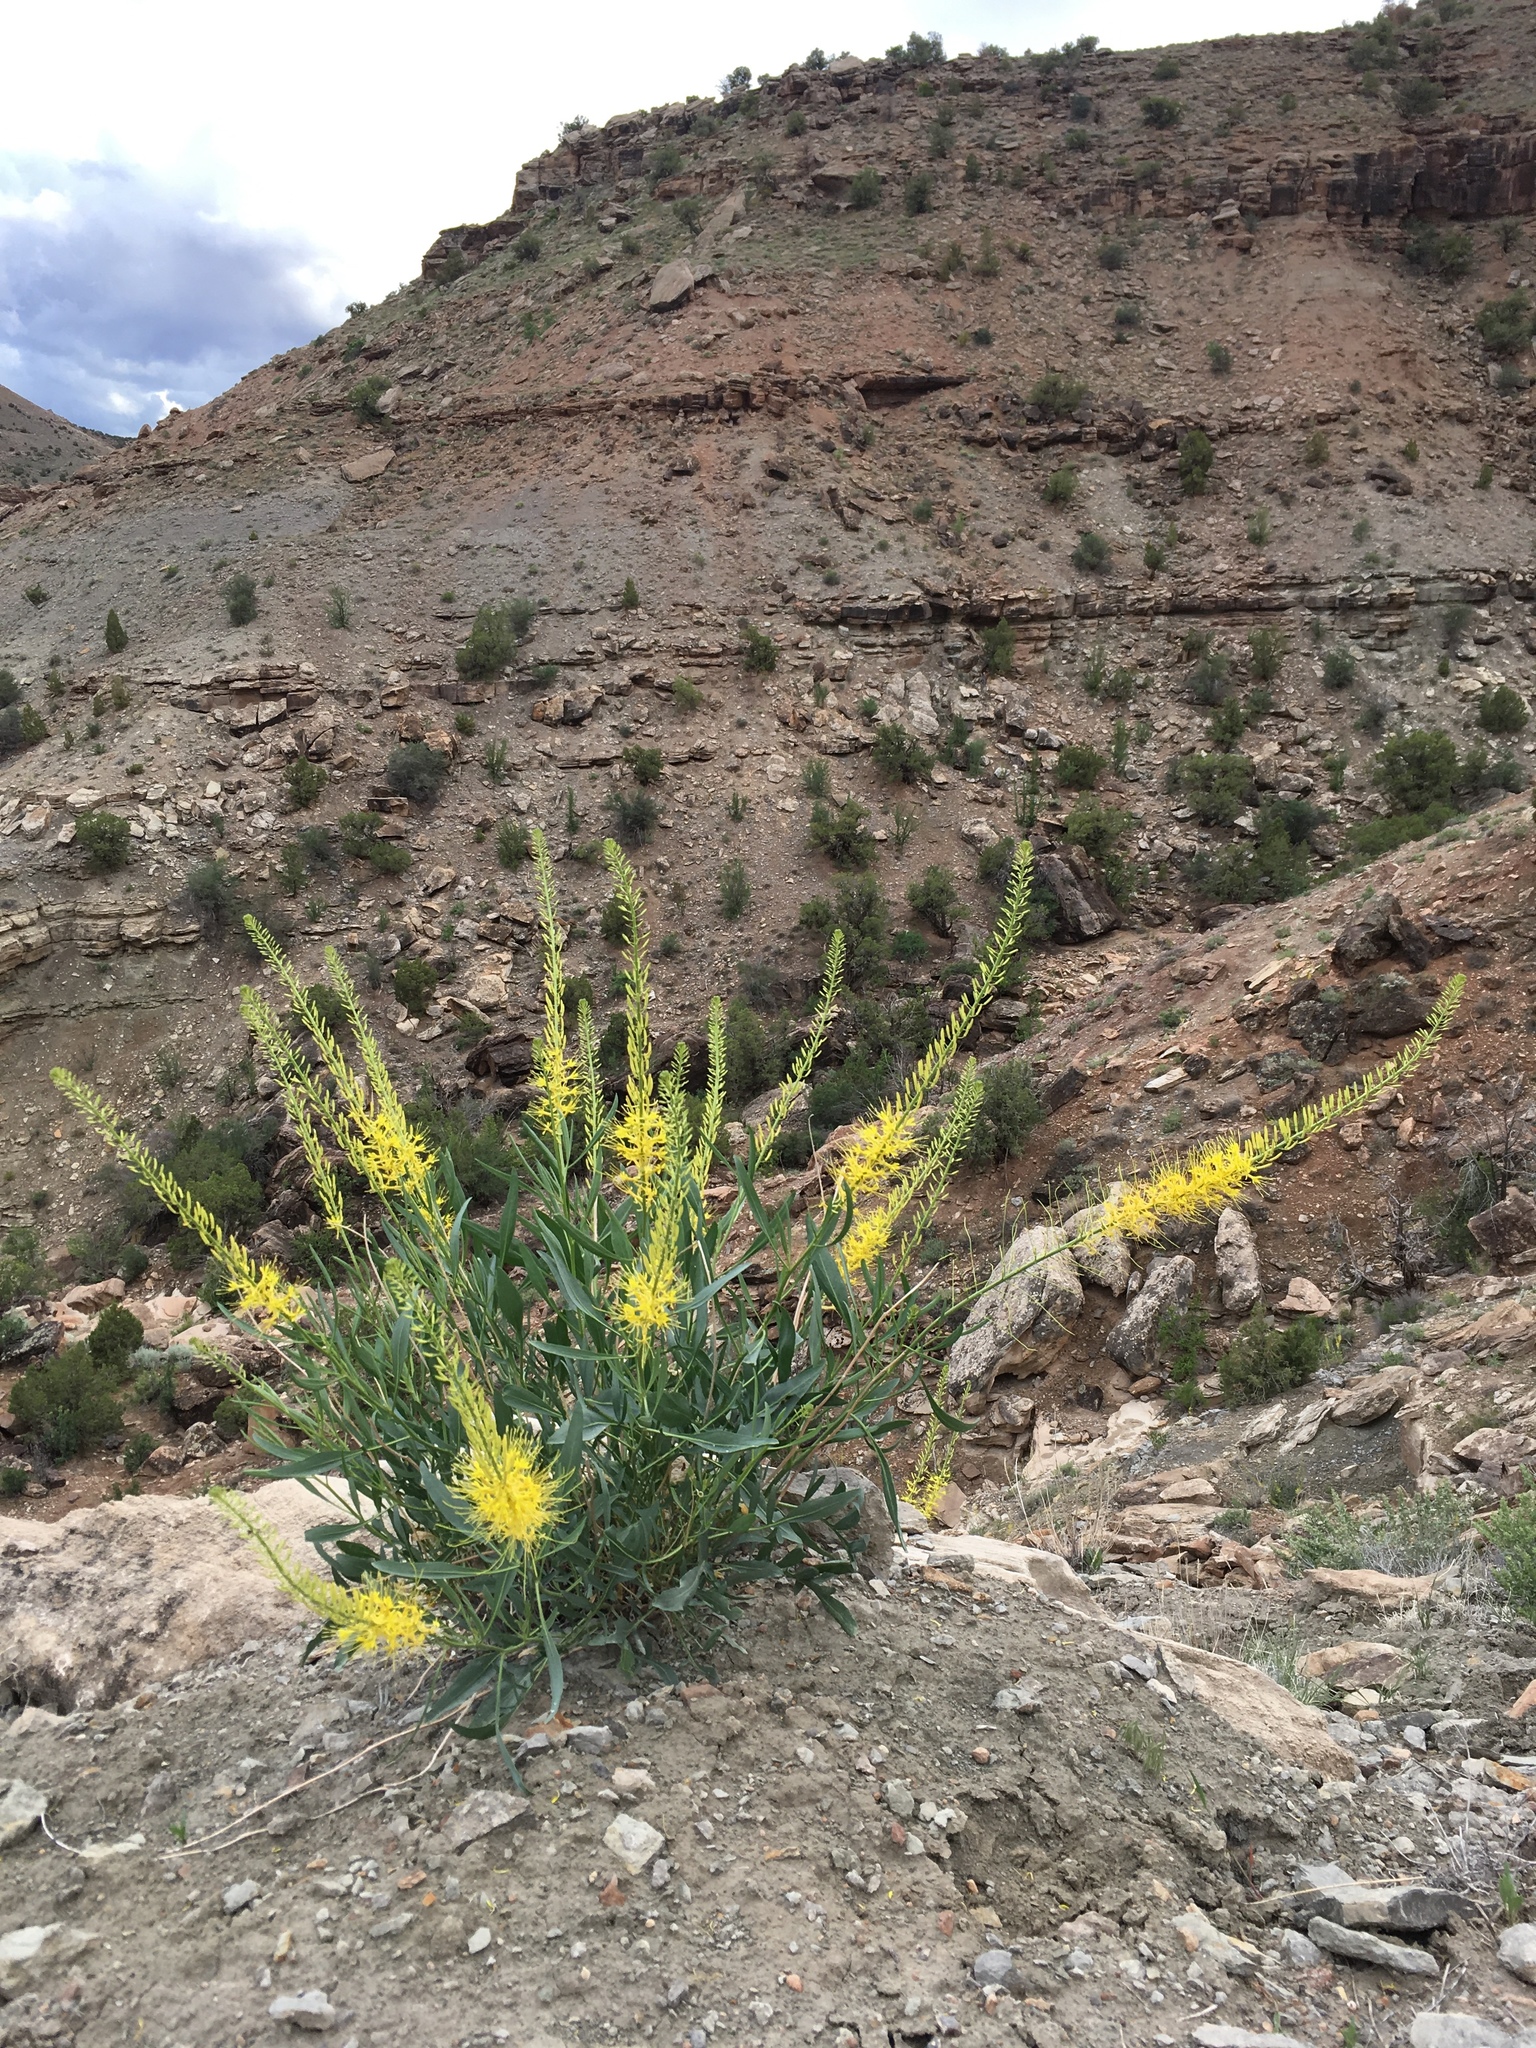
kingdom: Plantae
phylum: Tracheophyta
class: Magnoliopsida
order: Brassicales
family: Brassicaceae
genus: Stanleya
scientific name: Stanleya pinnata
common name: Prince's-plume
